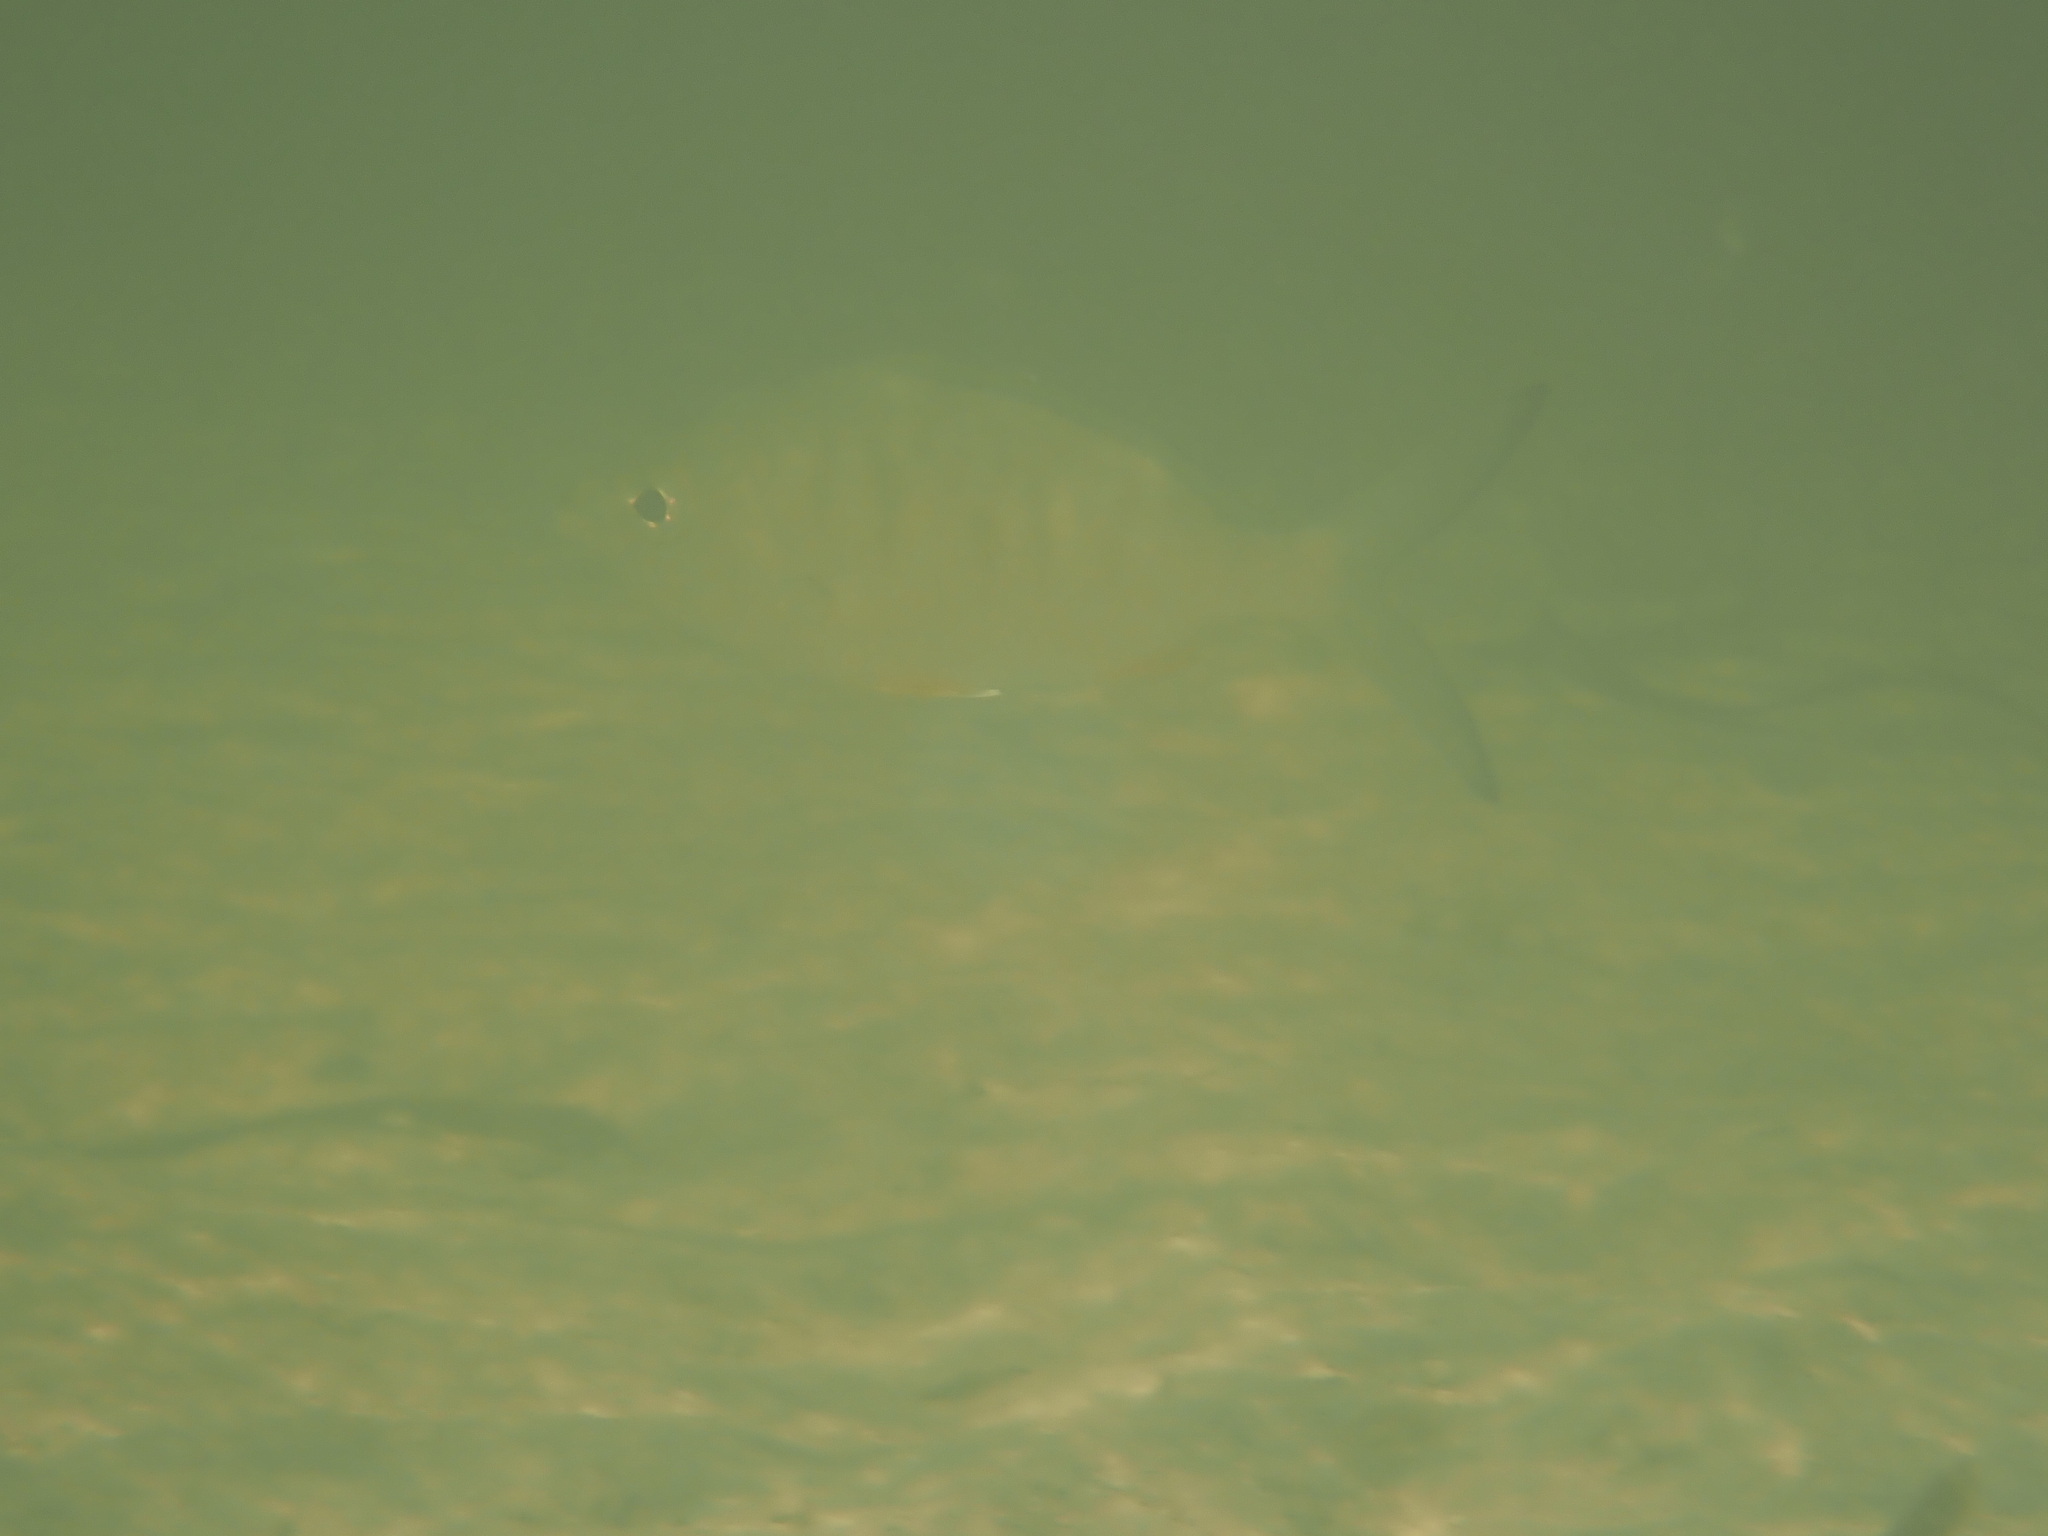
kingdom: Animalia
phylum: Chordata
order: Perciformes
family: Gerreidae
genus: Gerres
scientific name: Gerres cinereus
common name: Hedow
